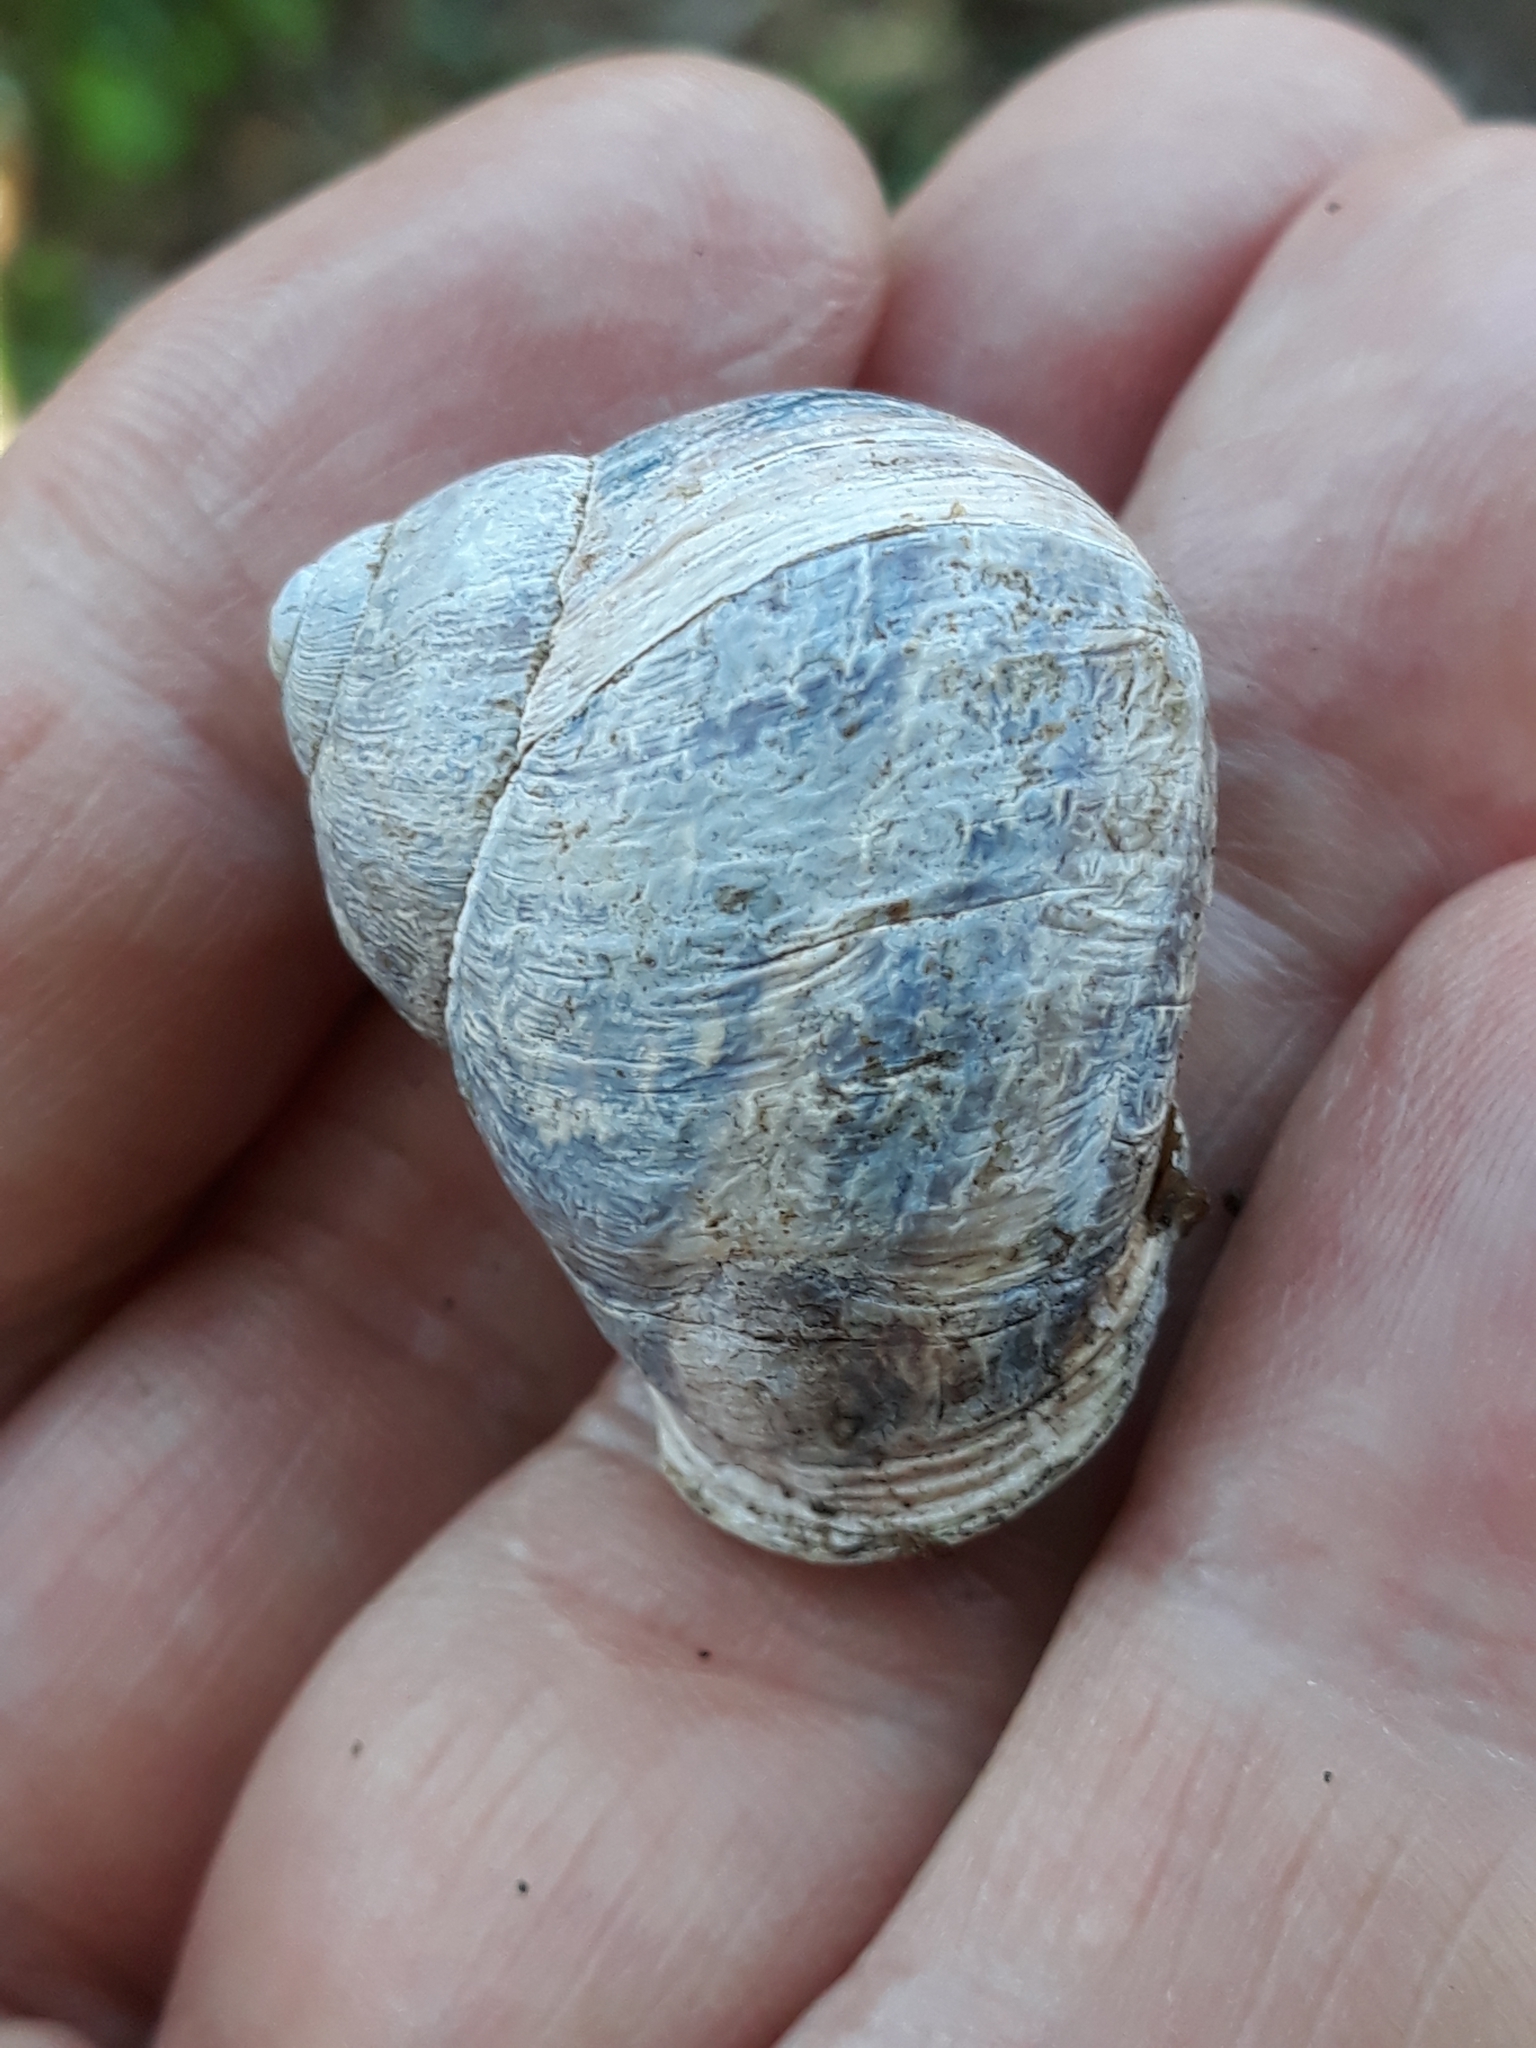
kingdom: Animalia
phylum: Mollusca
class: Gastropoda
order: Stylommatophora
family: Helicidae
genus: Cornu
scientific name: Cornu aspersum
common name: Brown garden snail
